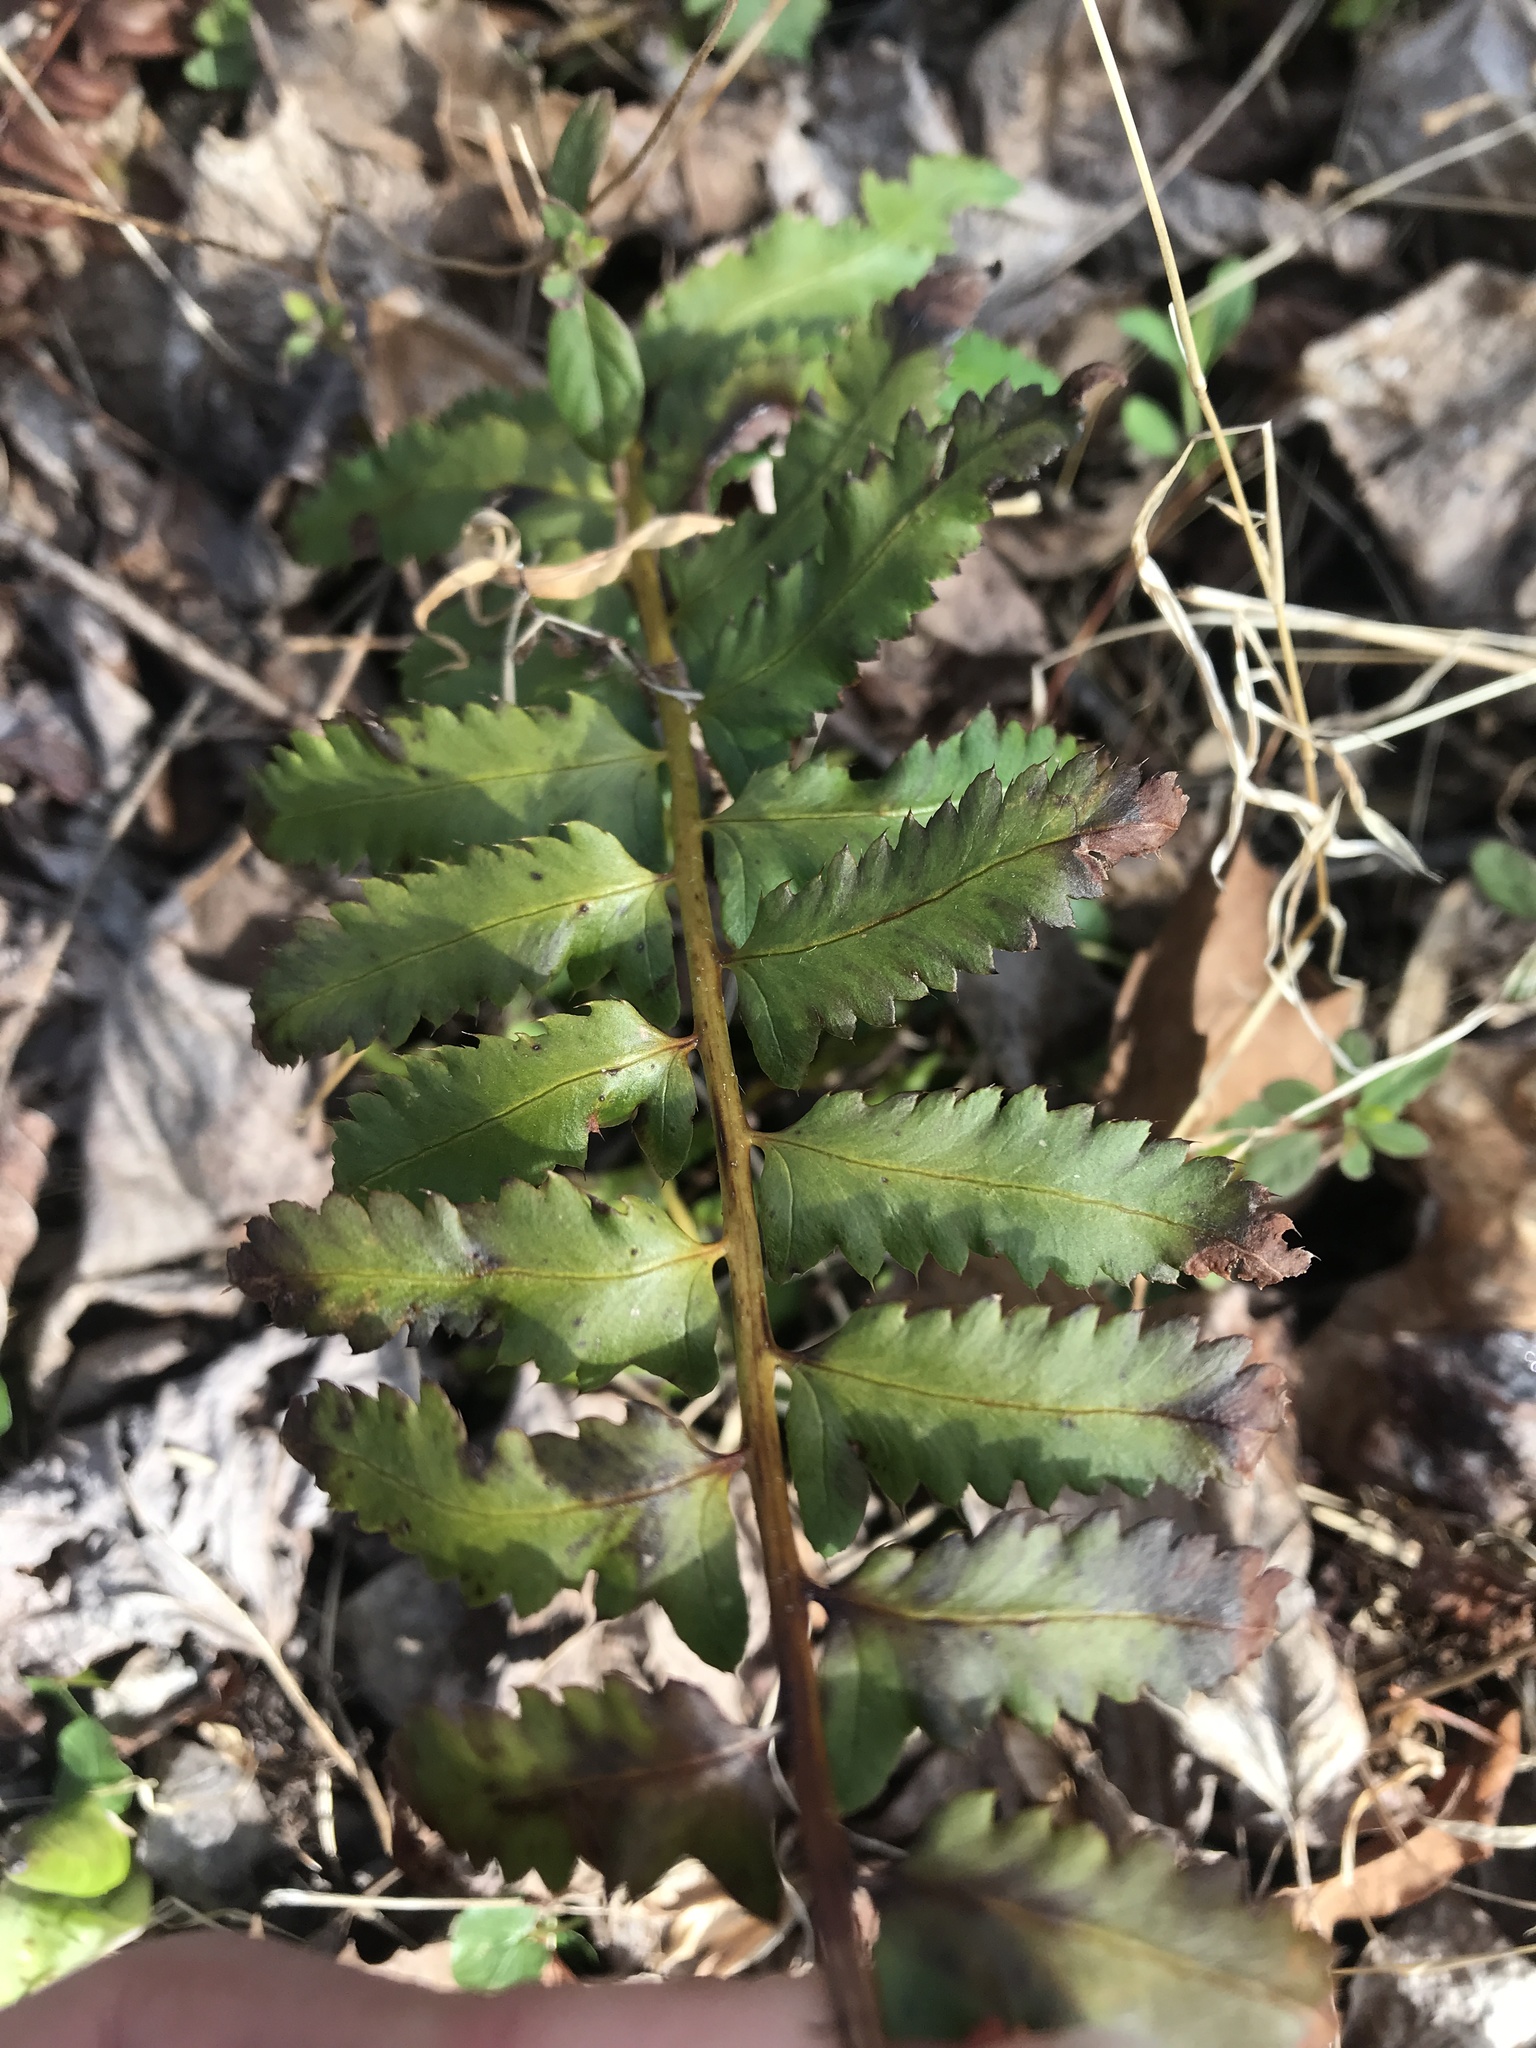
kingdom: Plantae
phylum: Tracheophyta
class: Polypodiopsida
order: Polypodiales
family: Dryopteridaceae
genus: Polystichum
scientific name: Polystichum acrostichoides
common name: Christmas fern
